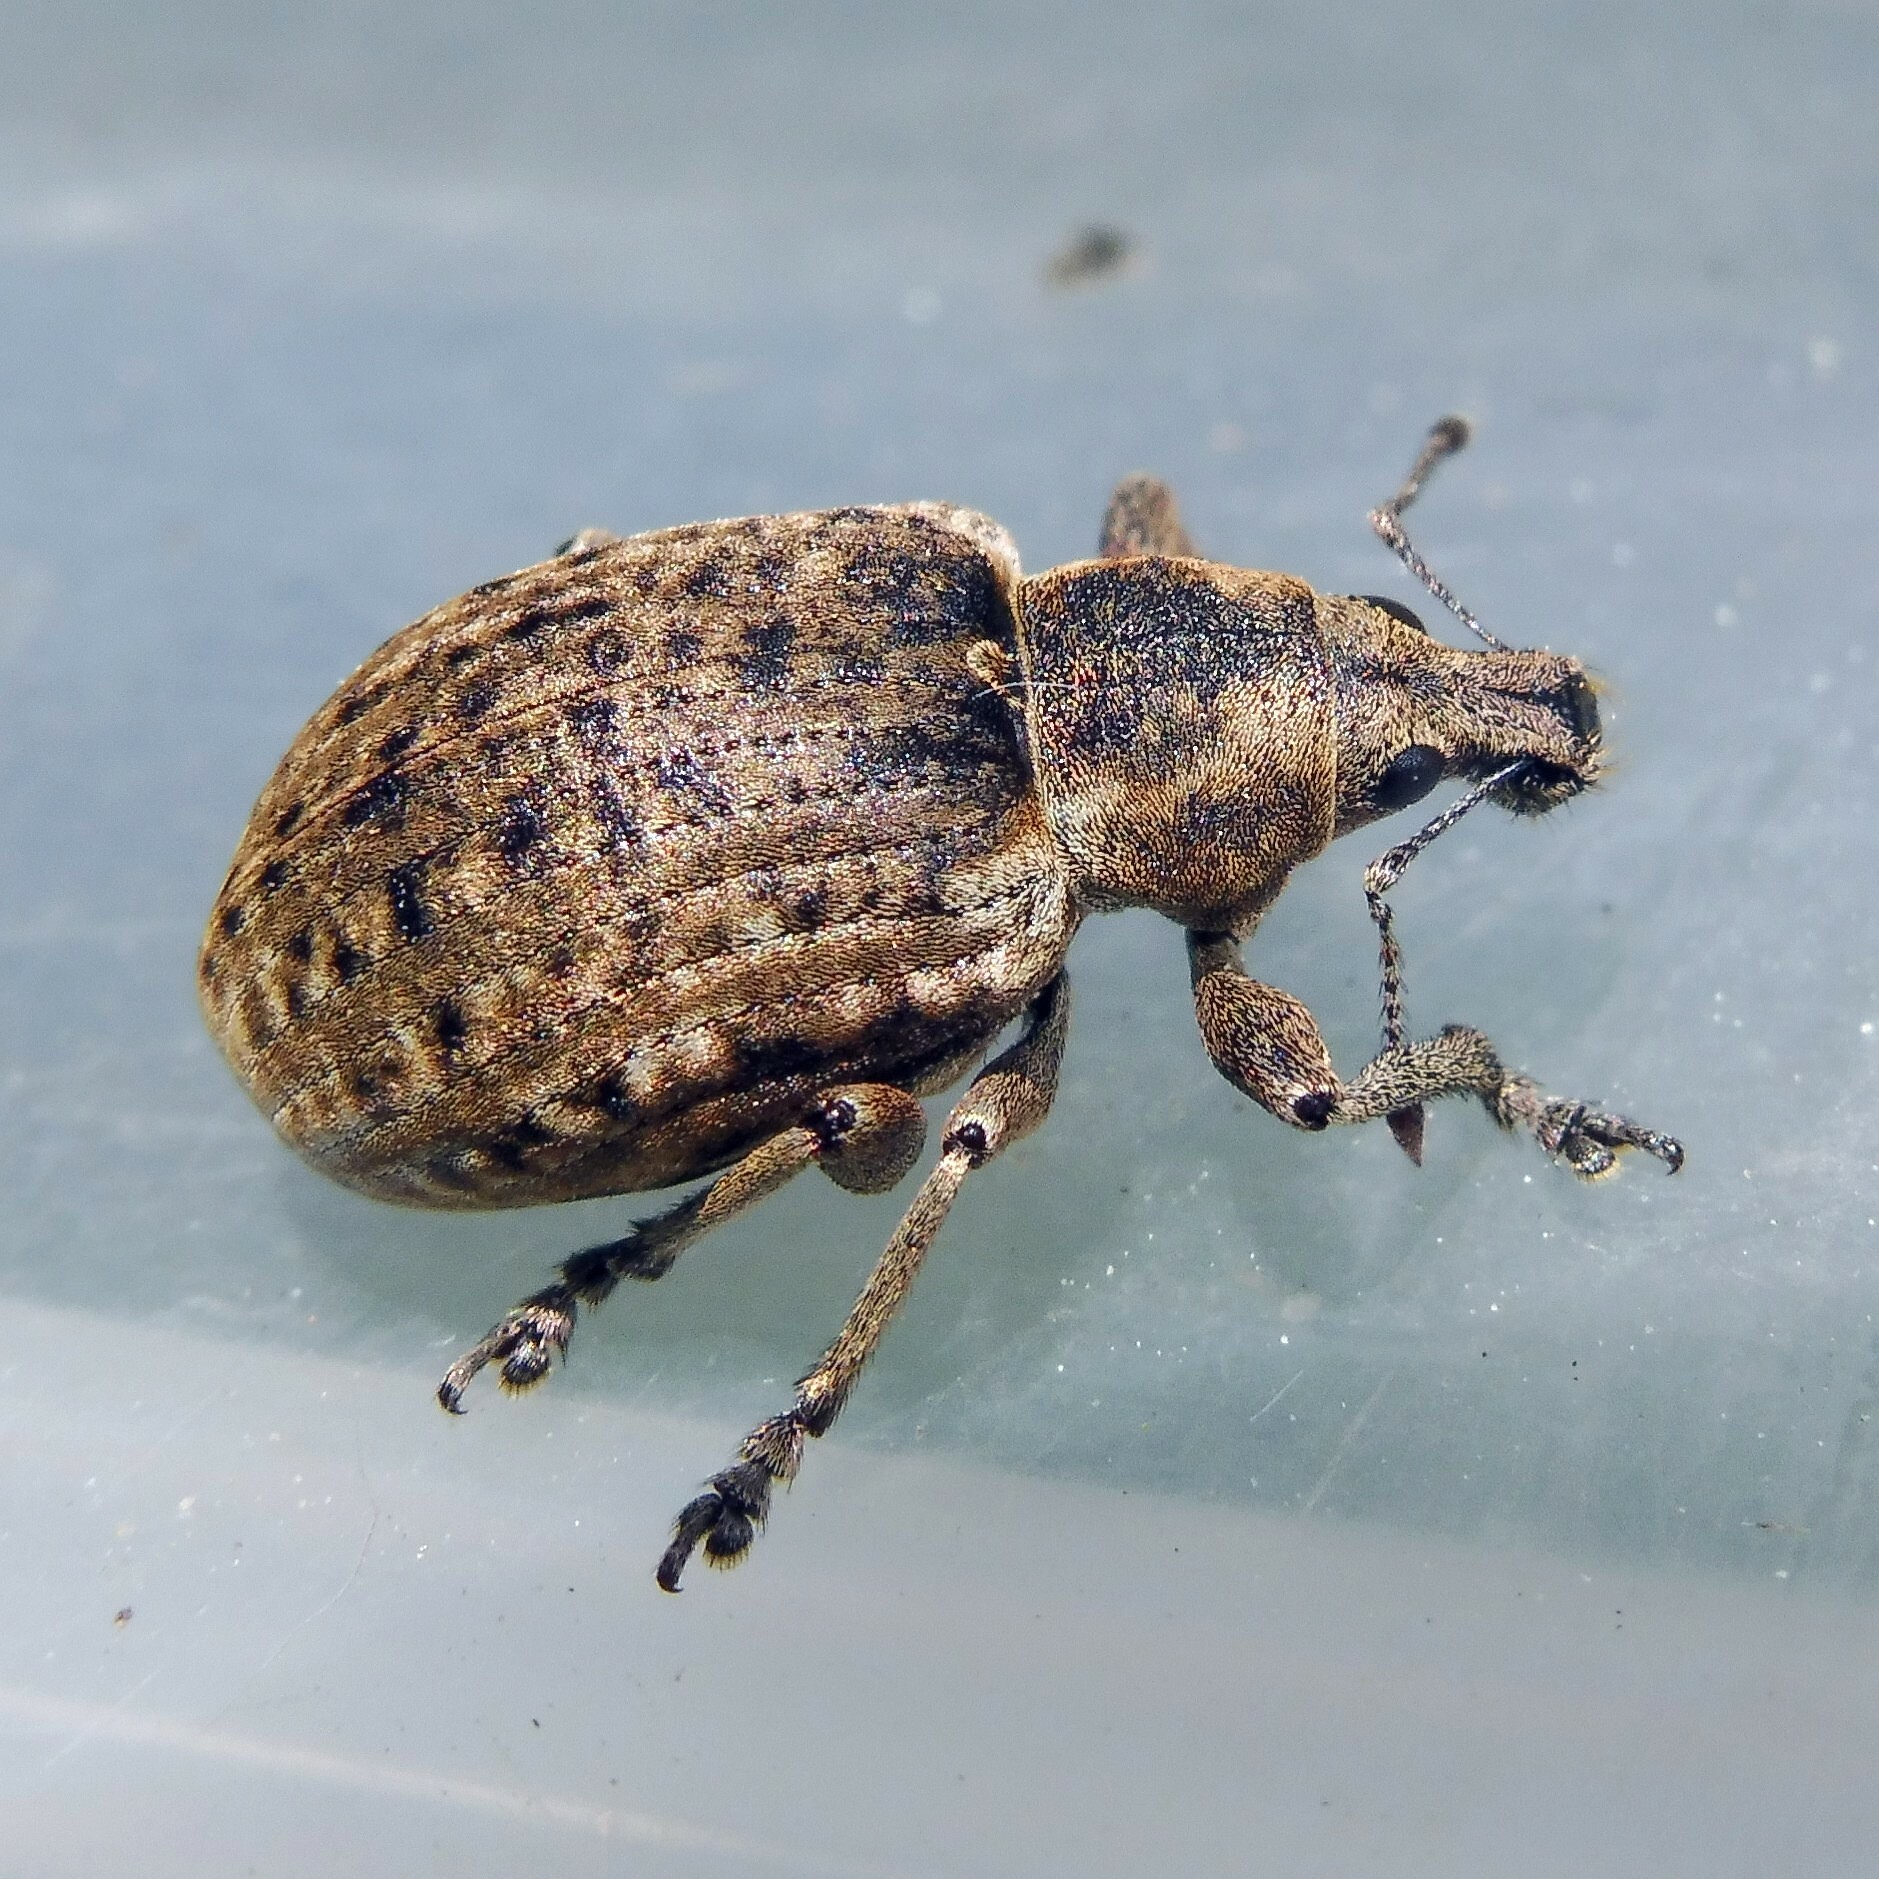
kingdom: Animalia
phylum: Arthropoda
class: Insecta
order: Coleoptera
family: Curculionidae
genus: Liophloeus
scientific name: Liophloeus tessulatus
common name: Weevil
